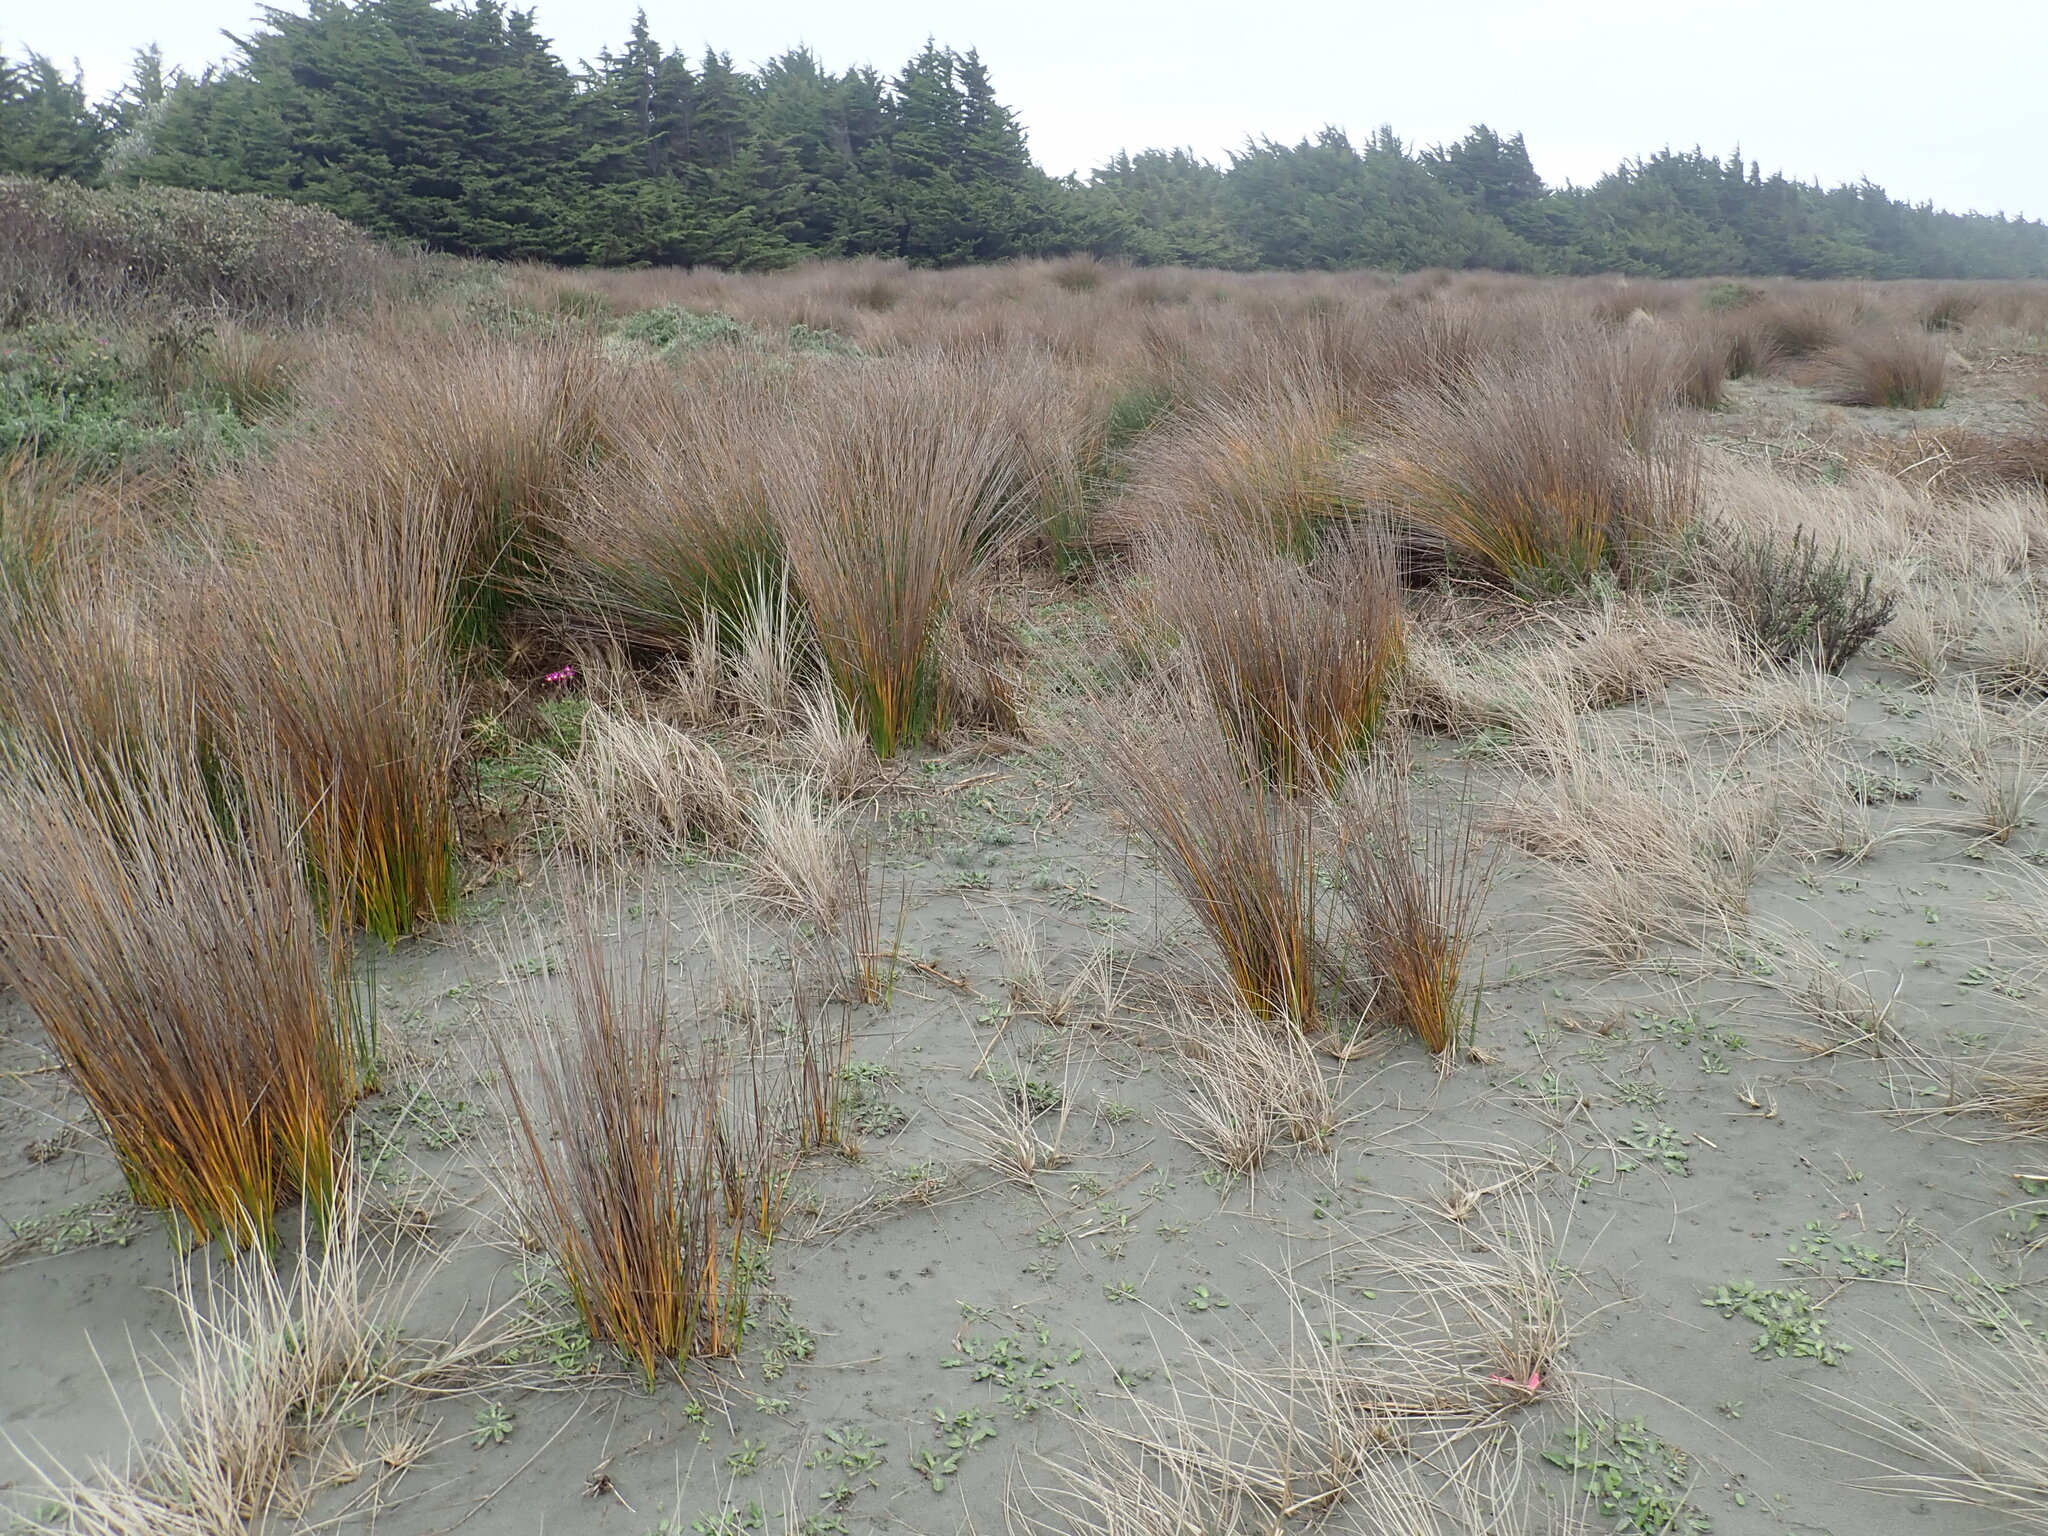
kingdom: Plantae
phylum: Tracheophyta
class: Liliopsida
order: Poales
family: Cyperaceae
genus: Ficinia
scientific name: Ficinia nodosa
